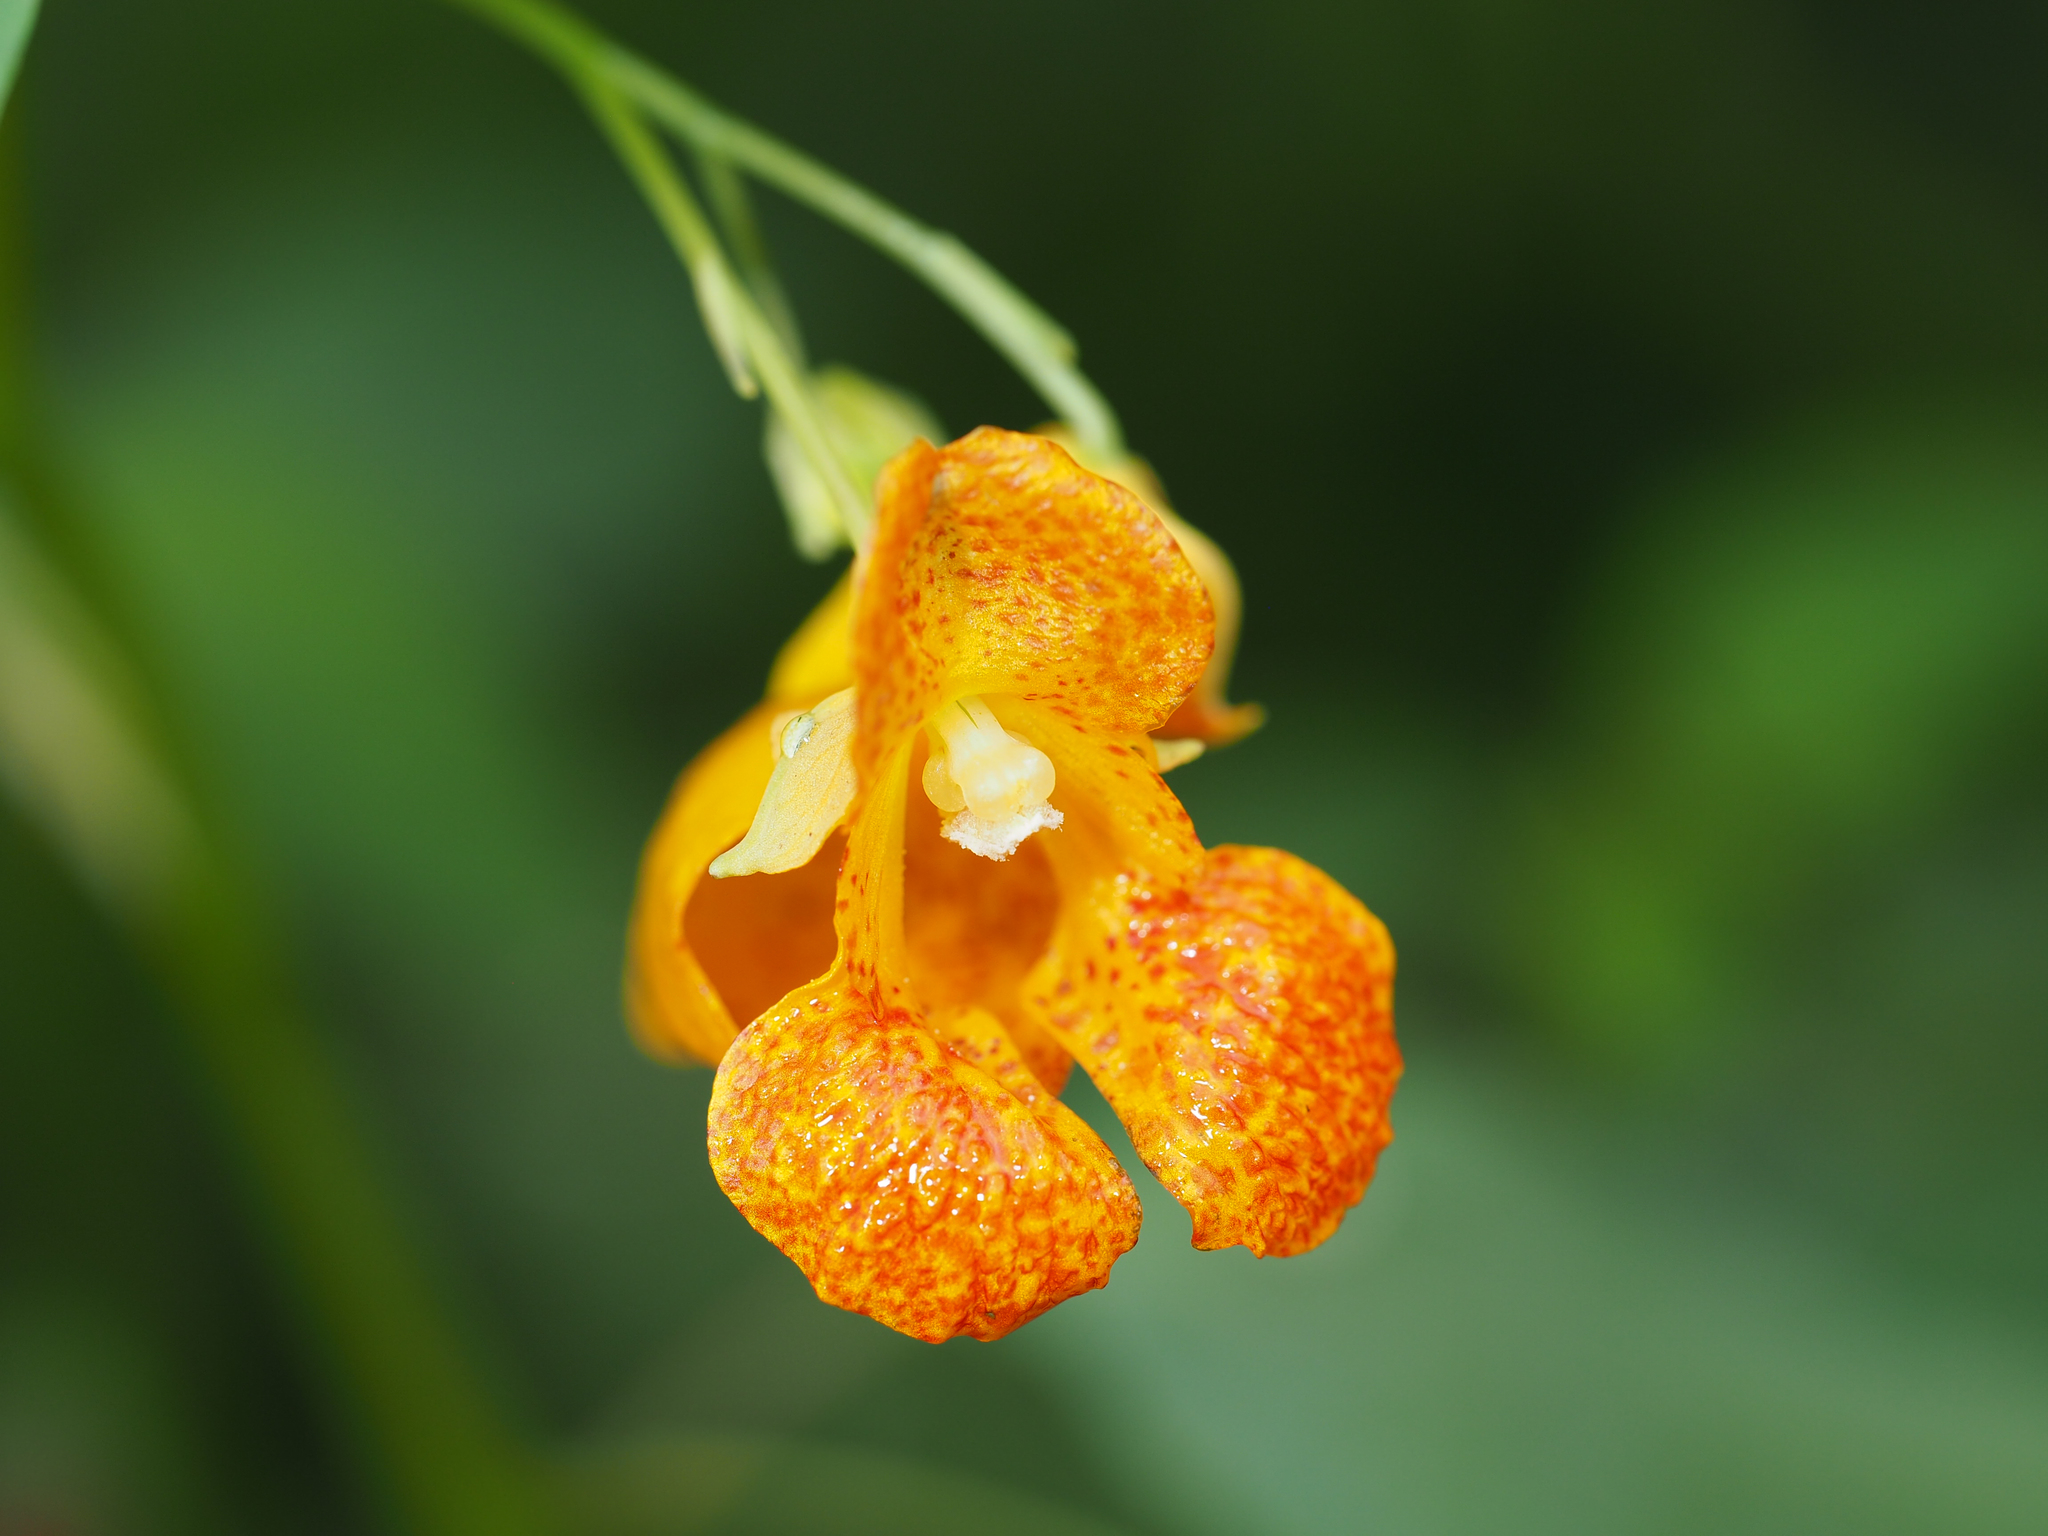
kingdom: Plantae
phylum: Tracheophyta
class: Magnoliopsida
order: Ericales
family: Balsaminaceae
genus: Impatiens
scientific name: Impatiens capensis
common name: Orange balsam
